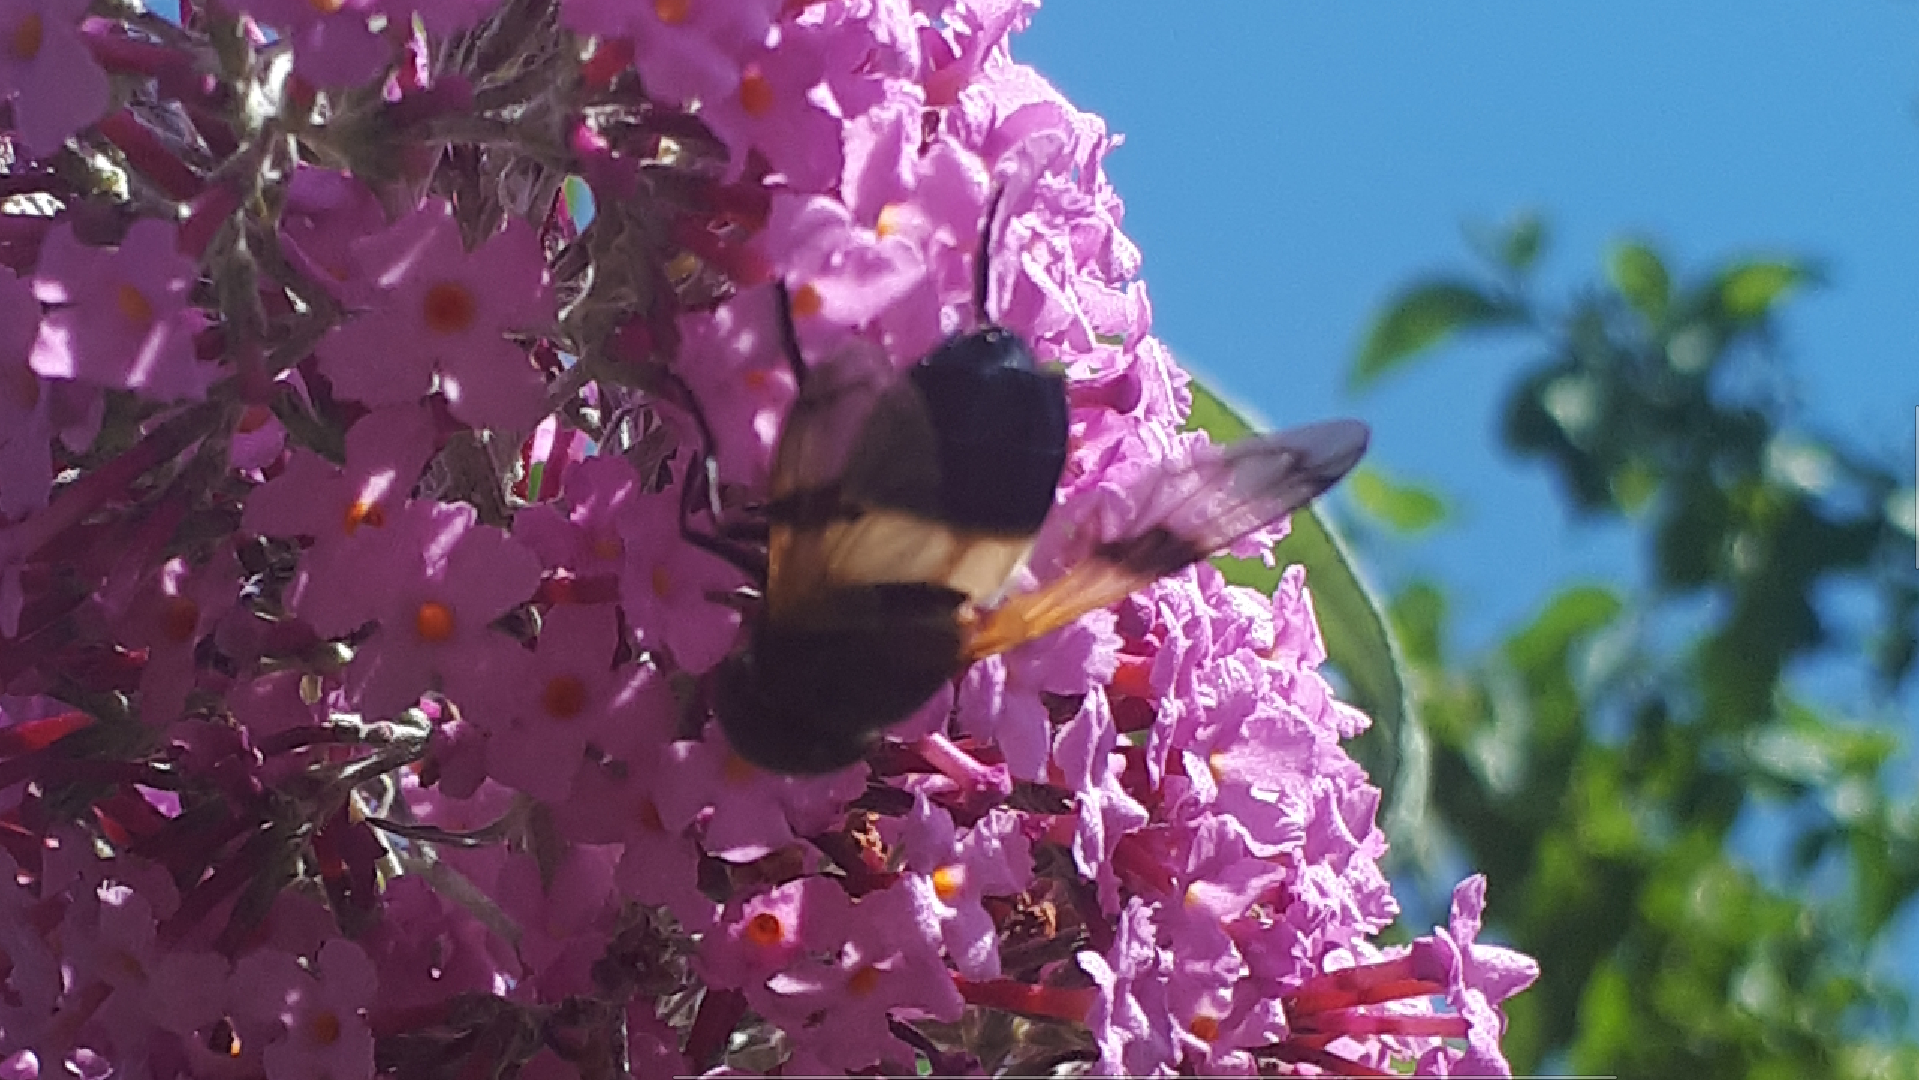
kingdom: Animalia
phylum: Arthropoda
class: Insecta
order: Diptera
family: Syrphidae
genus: Volucella
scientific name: Volucella pellucens
